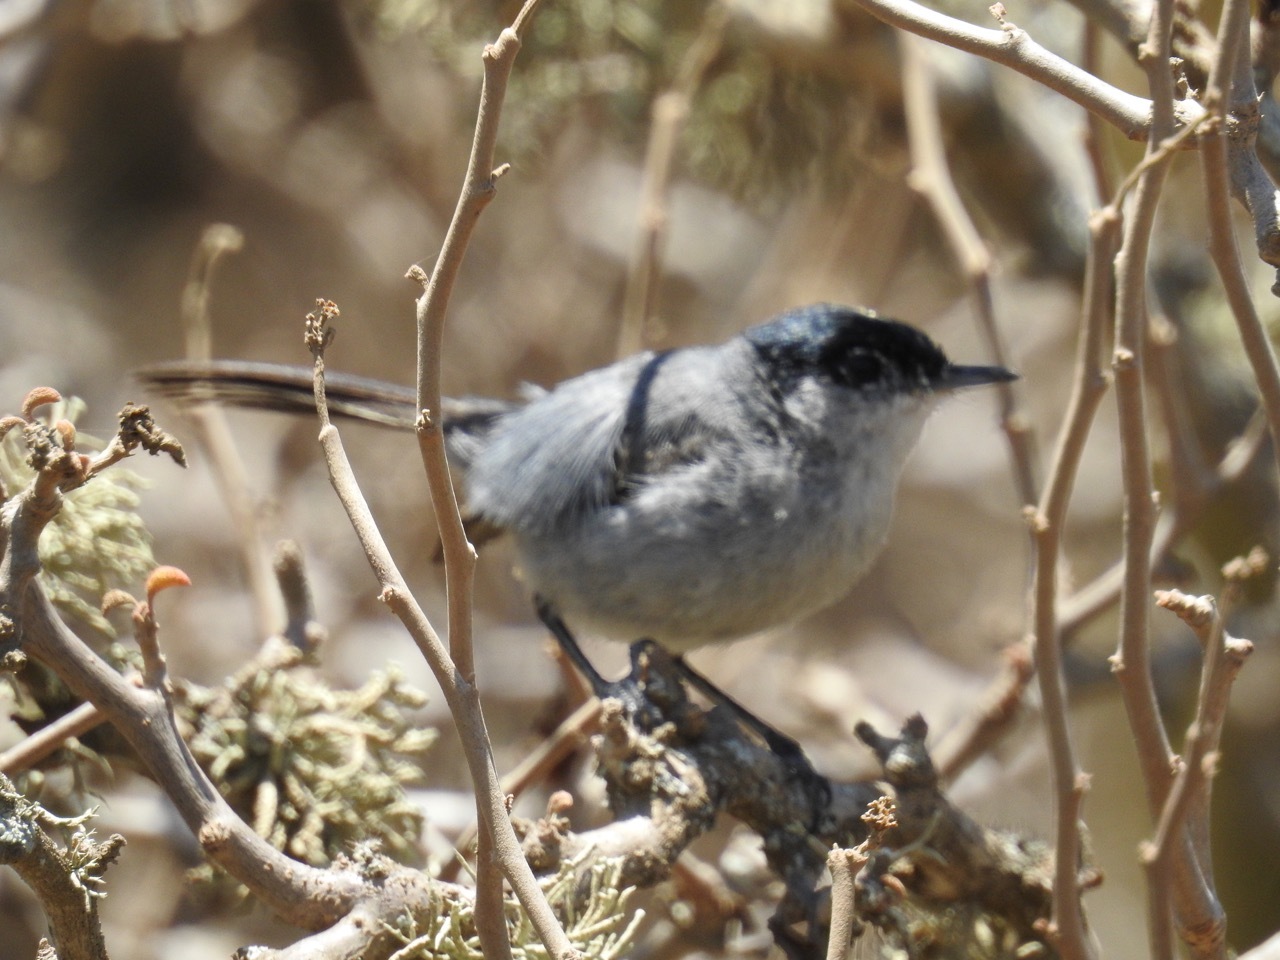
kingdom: Animalia
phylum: Chordata
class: Aves
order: Passeriformes
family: Polioptilidae
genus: Polioptila
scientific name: Polioptila californica
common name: California gnatcatcher
